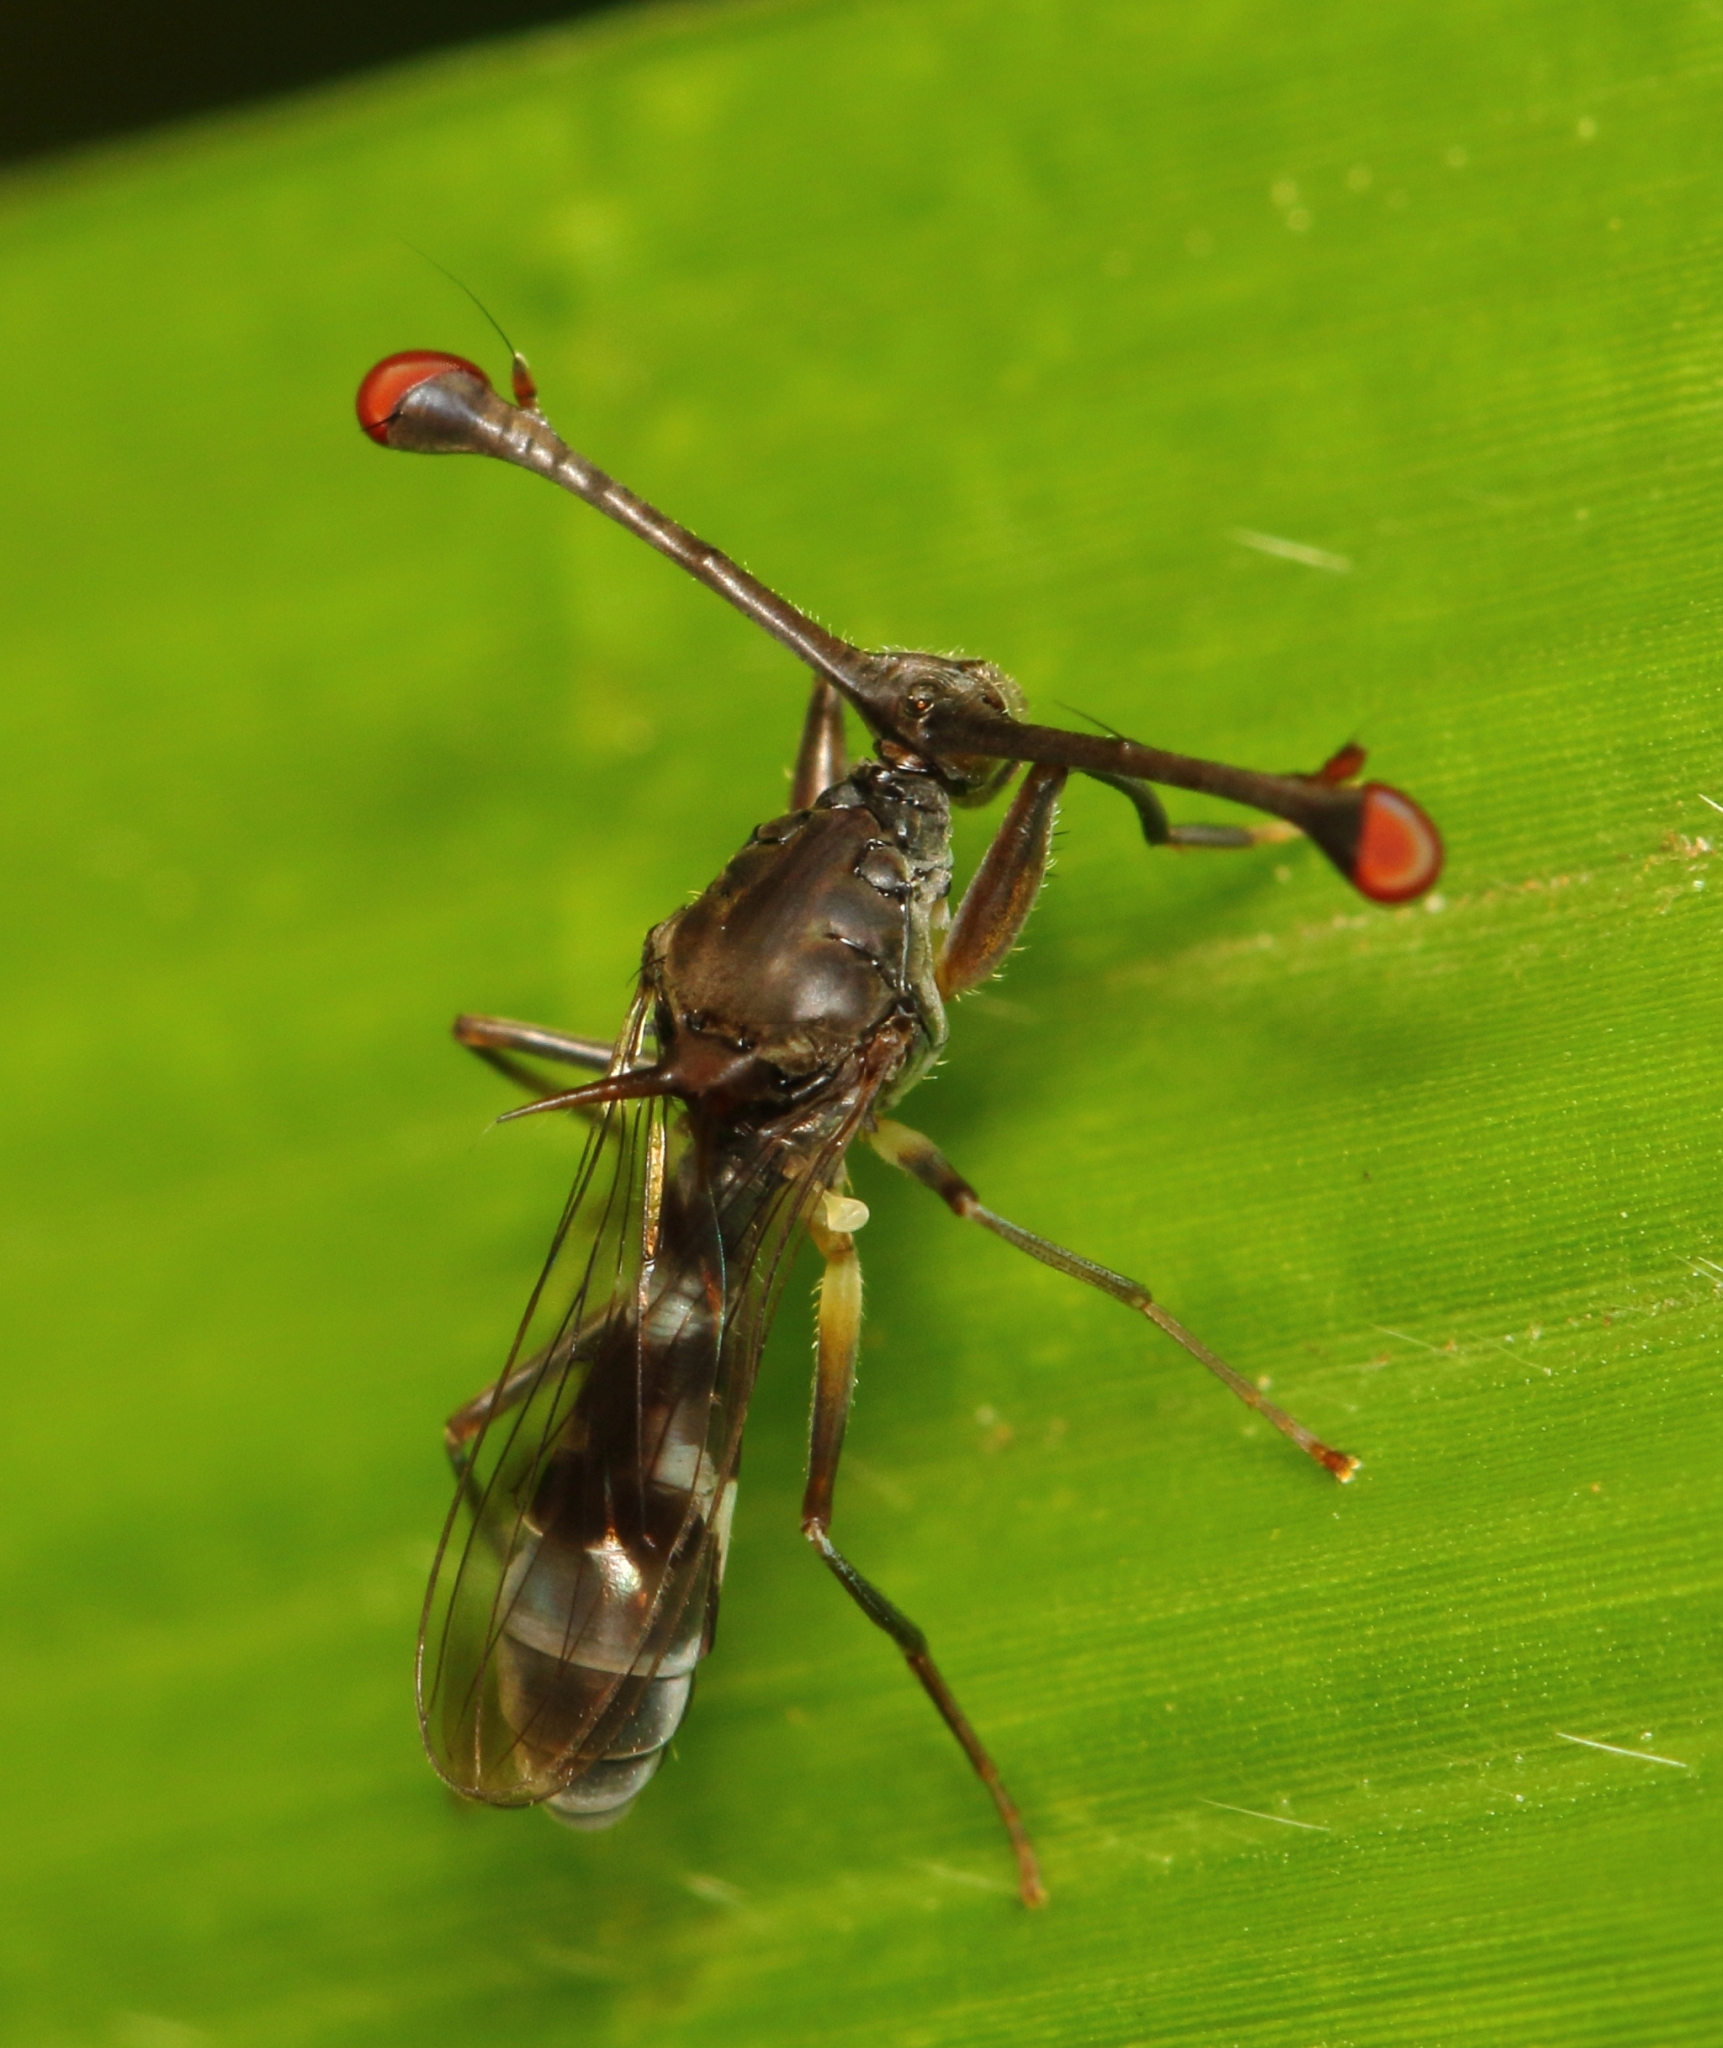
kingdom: Animalia
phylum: Arthropoda
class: Insecta
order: Diptera
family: Diopsidae
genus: Diasemopsis
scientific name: Diasemopsis obstans
